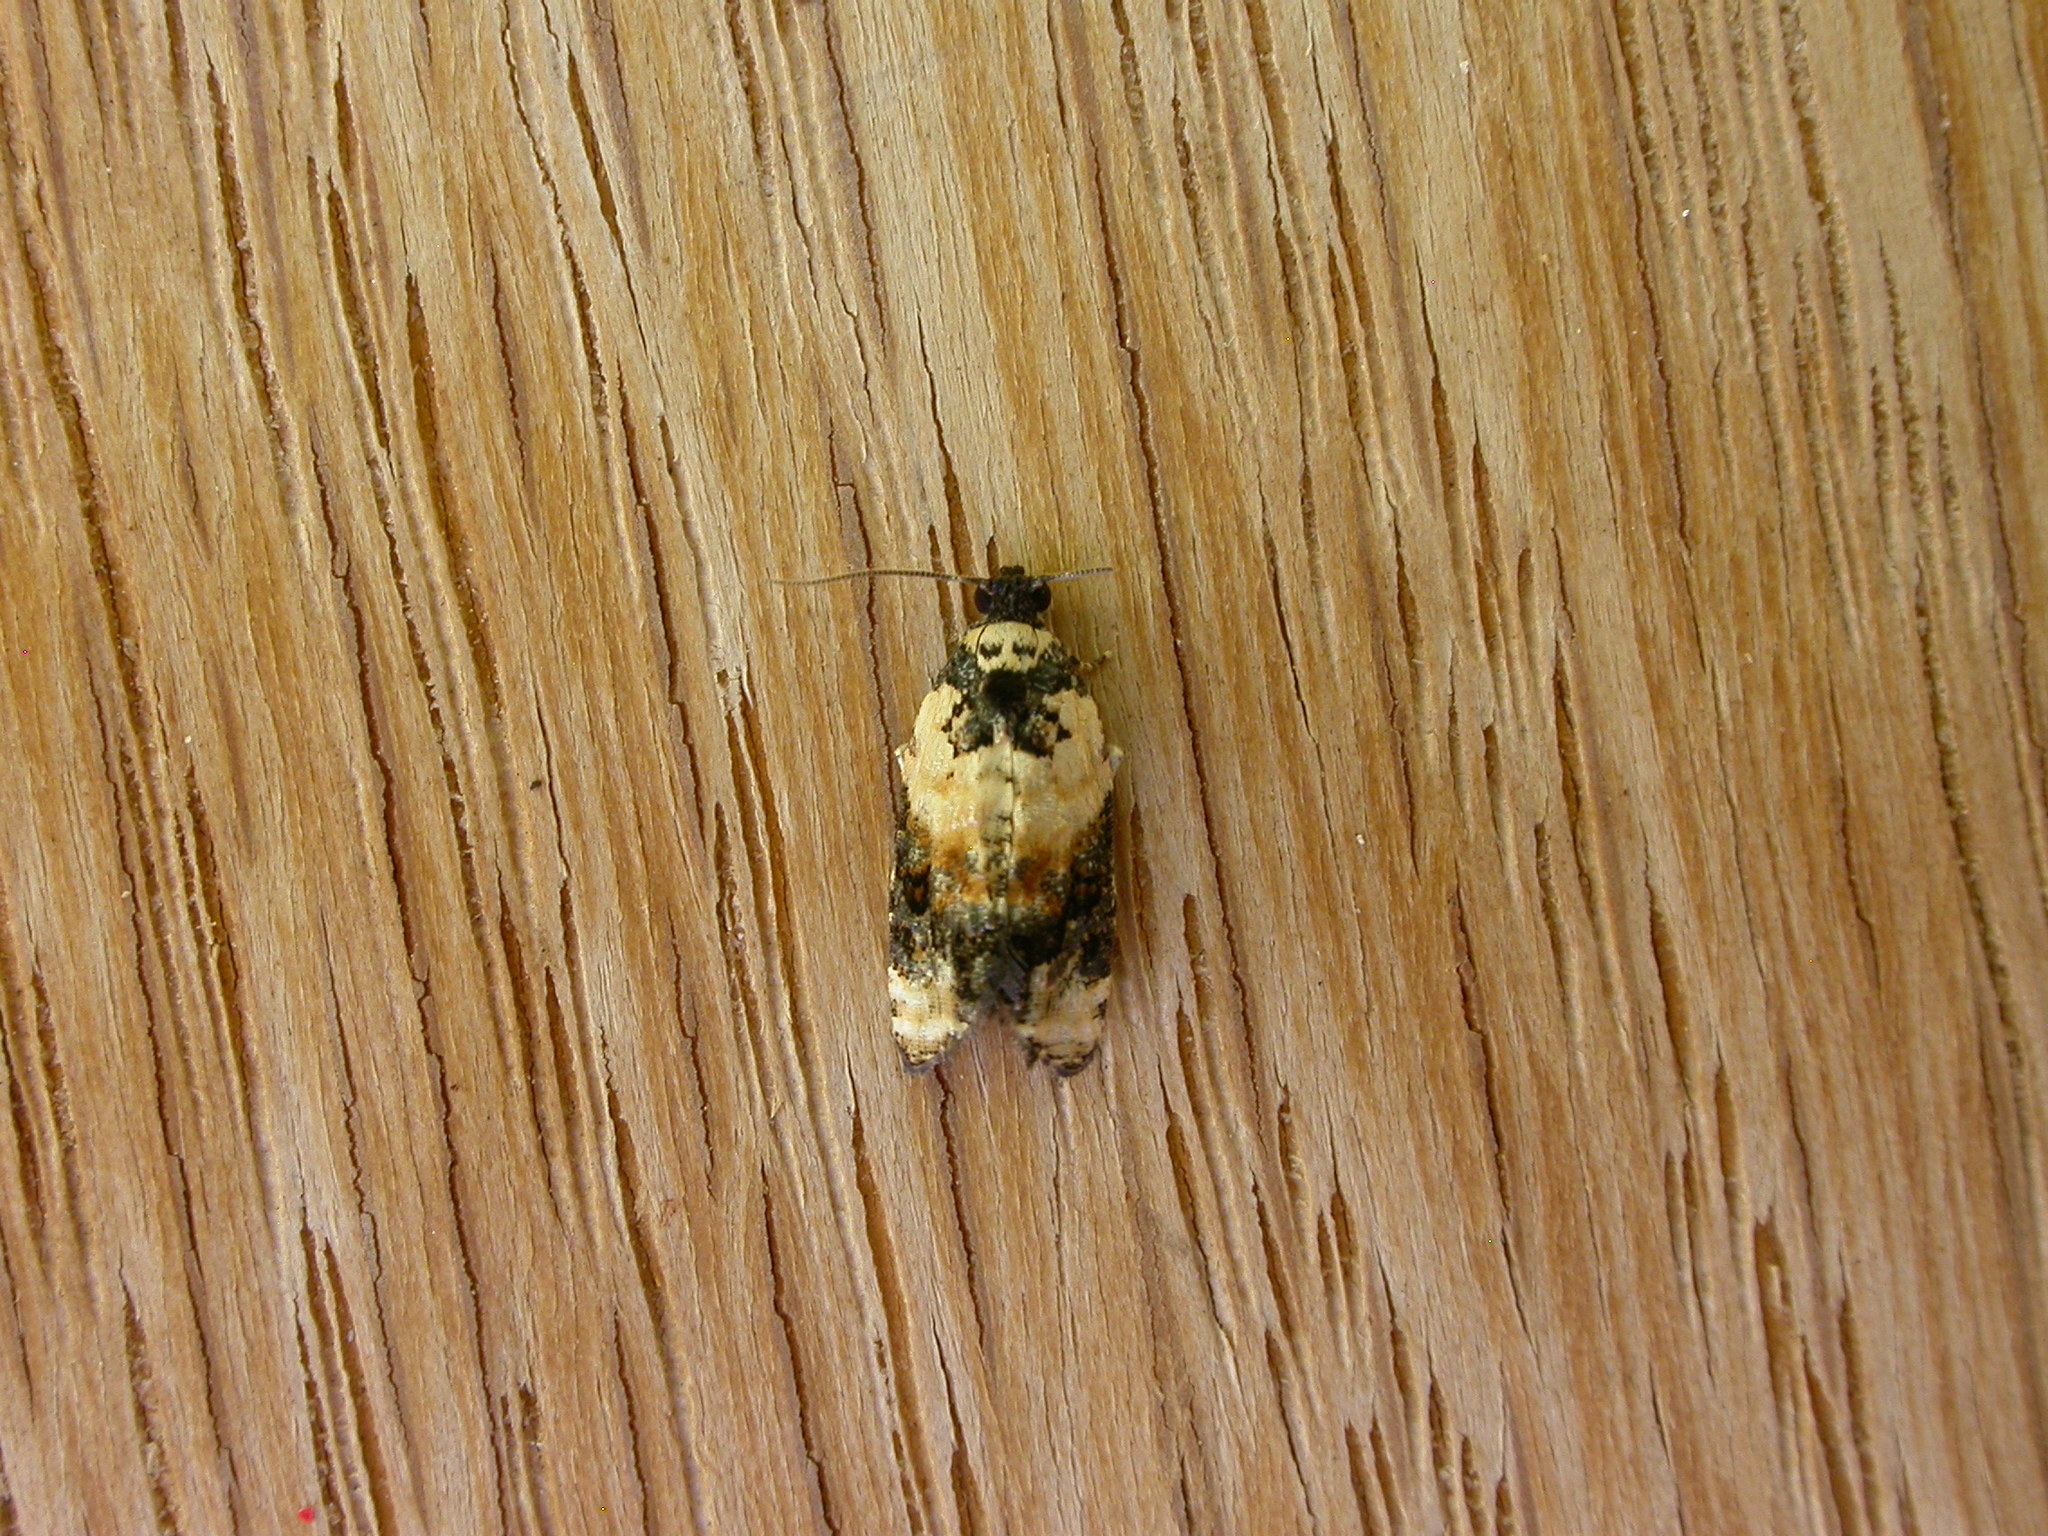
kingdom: Animalia
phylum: Arthropoda
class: Insecta
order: Lepidoptera
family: Tortricidae
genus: Asthenoptycha
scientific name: Asthenoptycha iriodes
